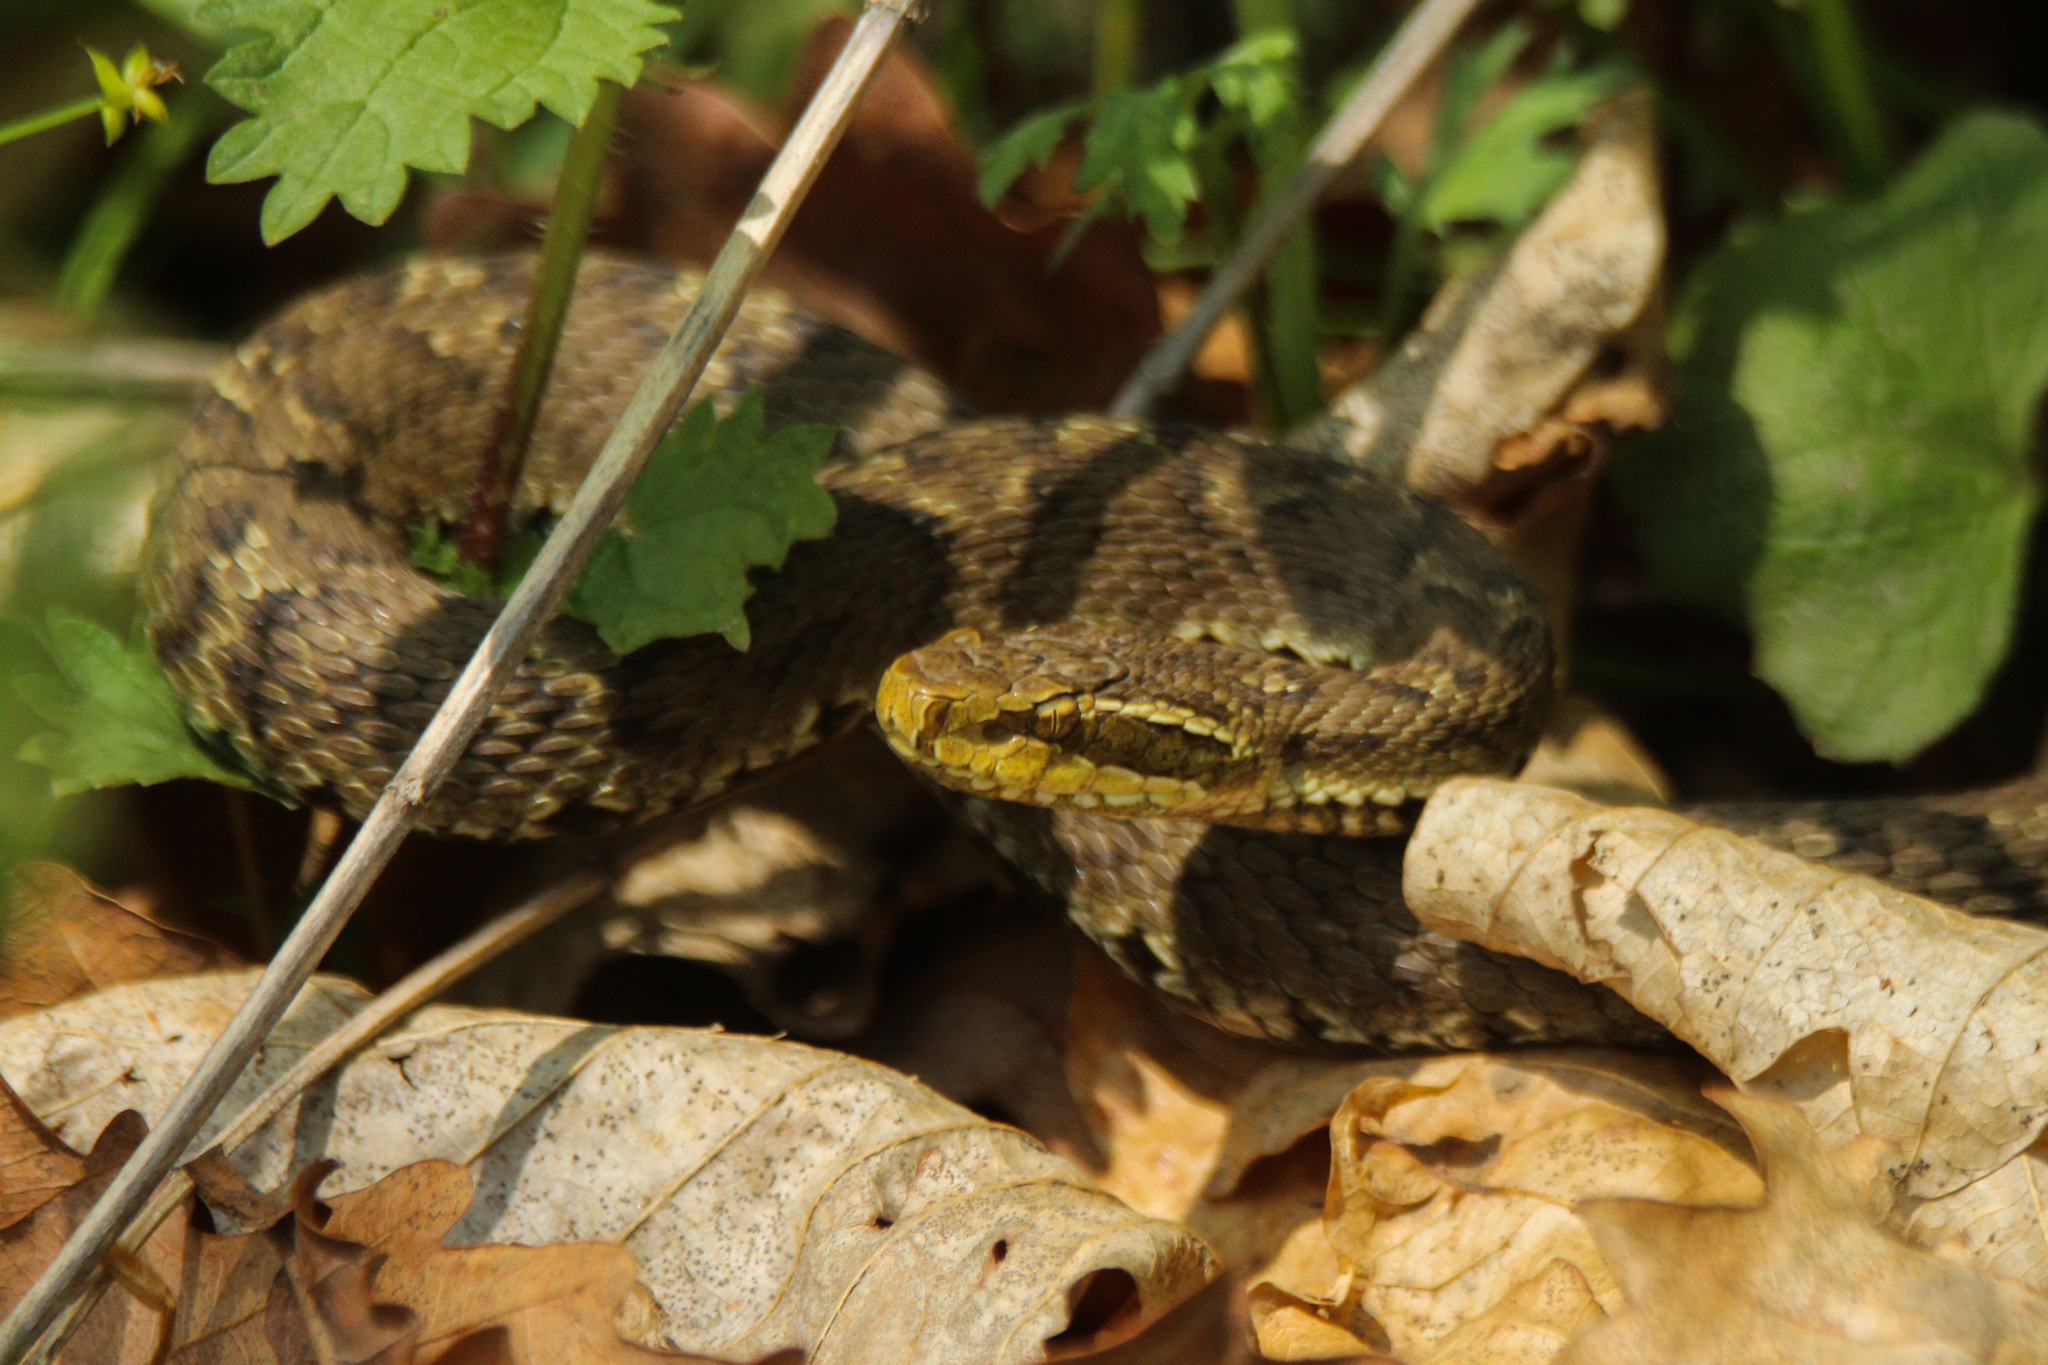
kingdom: Animalia
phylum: Chordata
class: Squamata
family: Viperidae
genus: Gloydius
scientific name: Gloydius ussuriensis
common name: Ussuri mamushi
